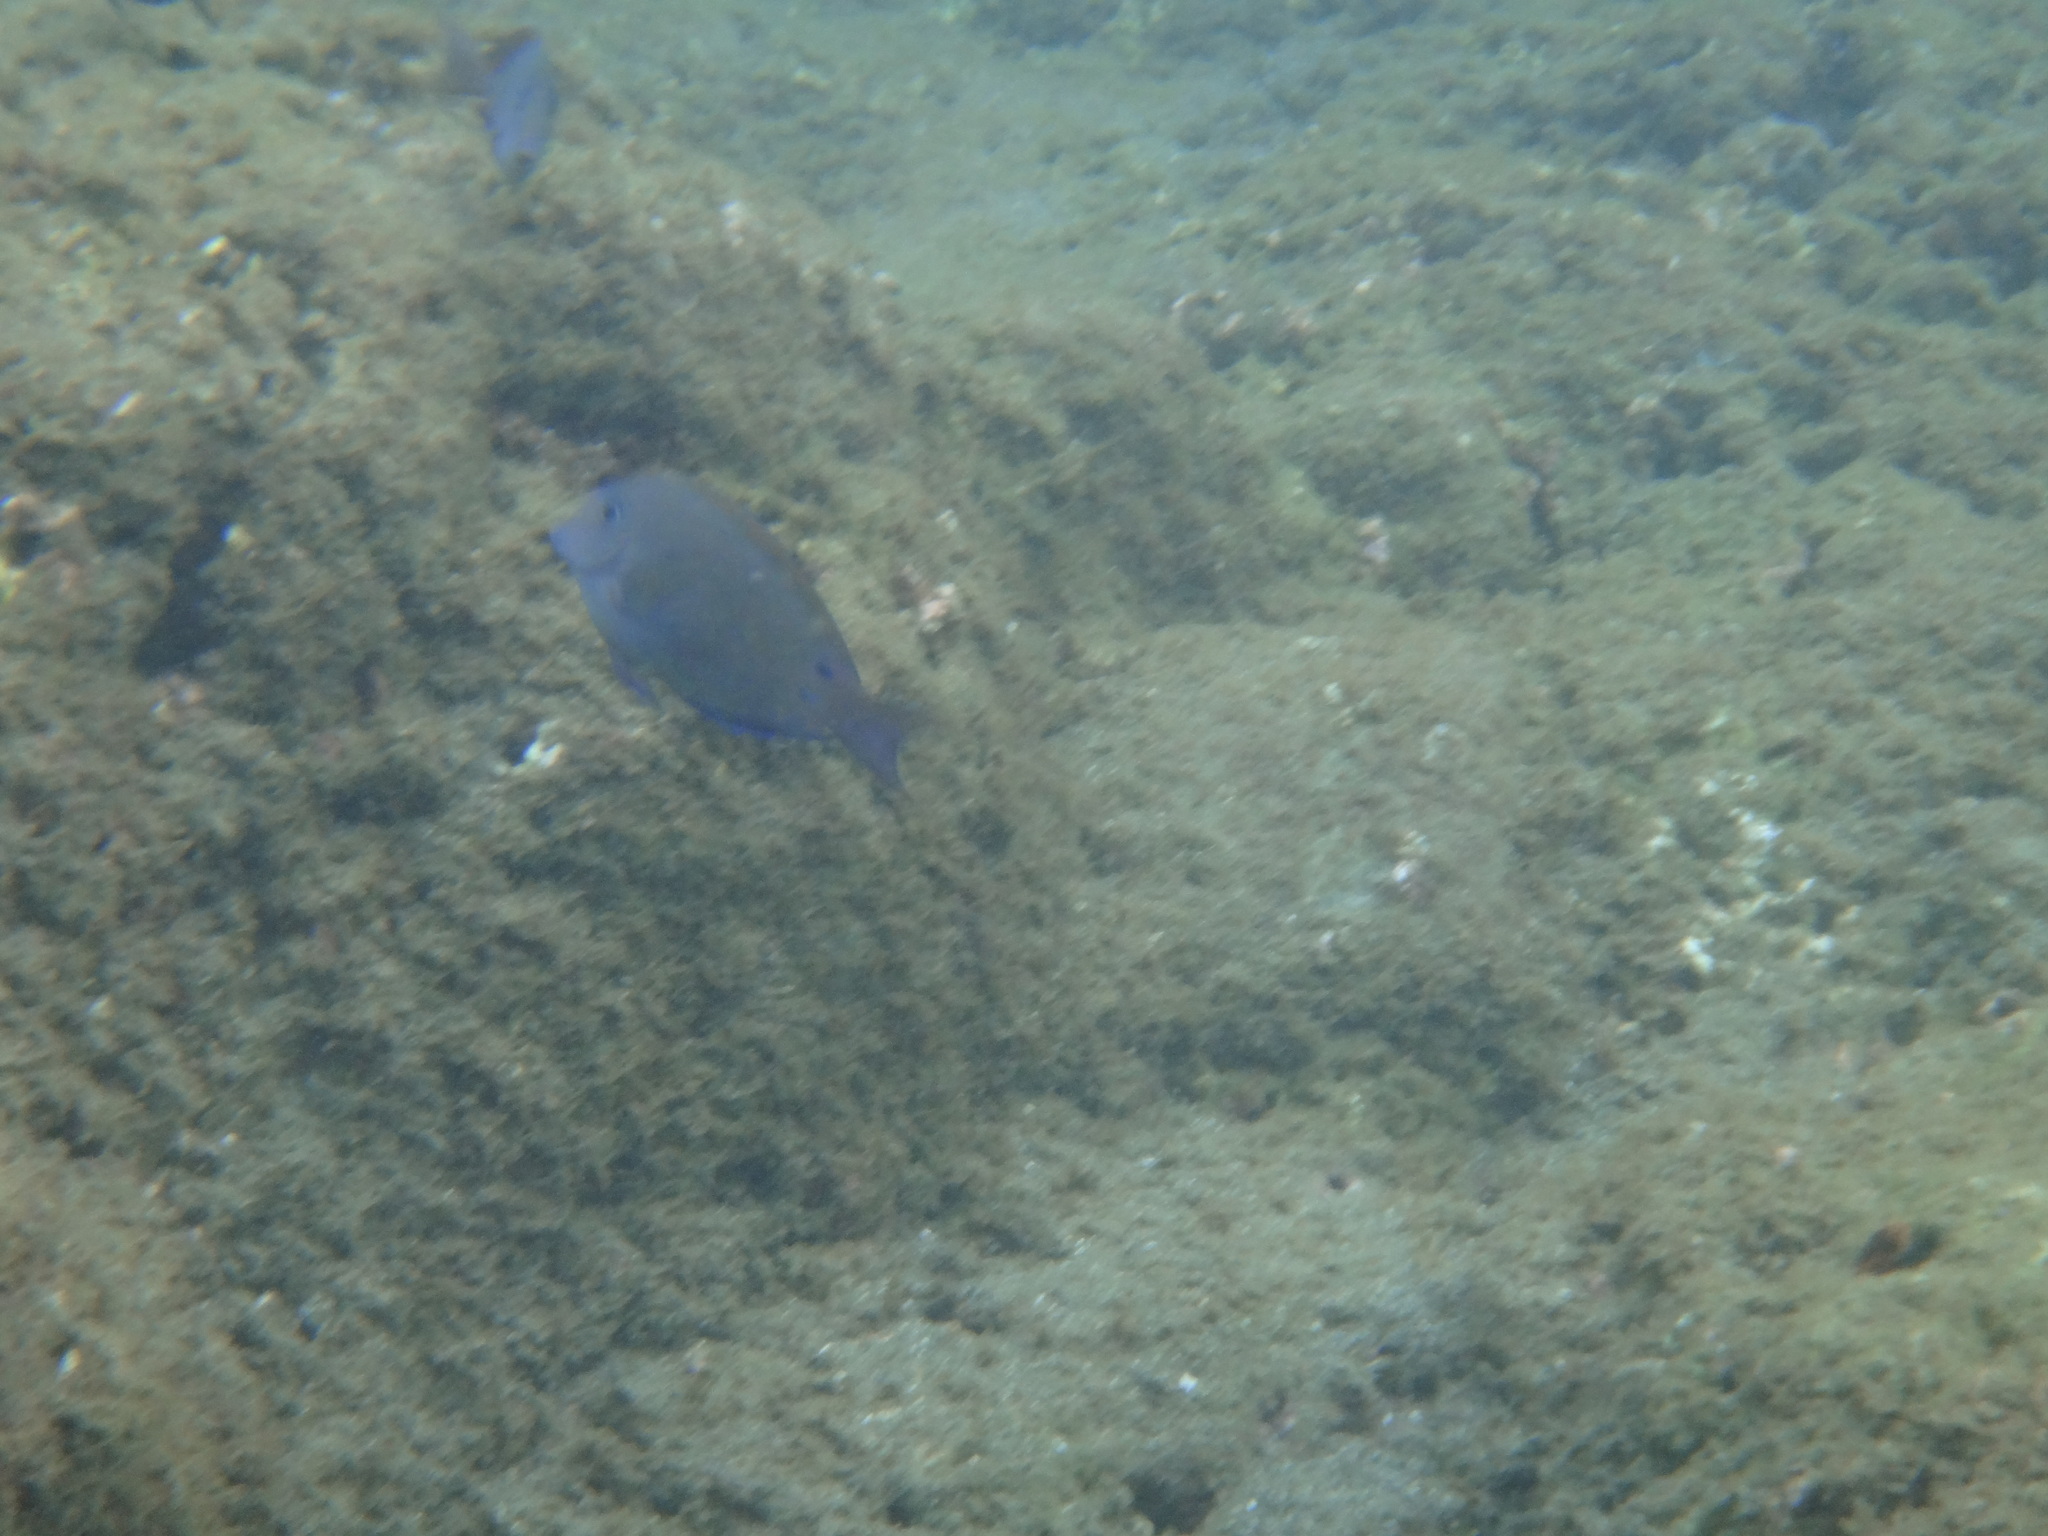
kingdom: Animalia
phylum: Chordata
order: Perciformes
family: Acanthuridae
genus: Acanthurus
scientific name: Acanthurus nigrofuscus
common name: Blackspot surgeonfish
